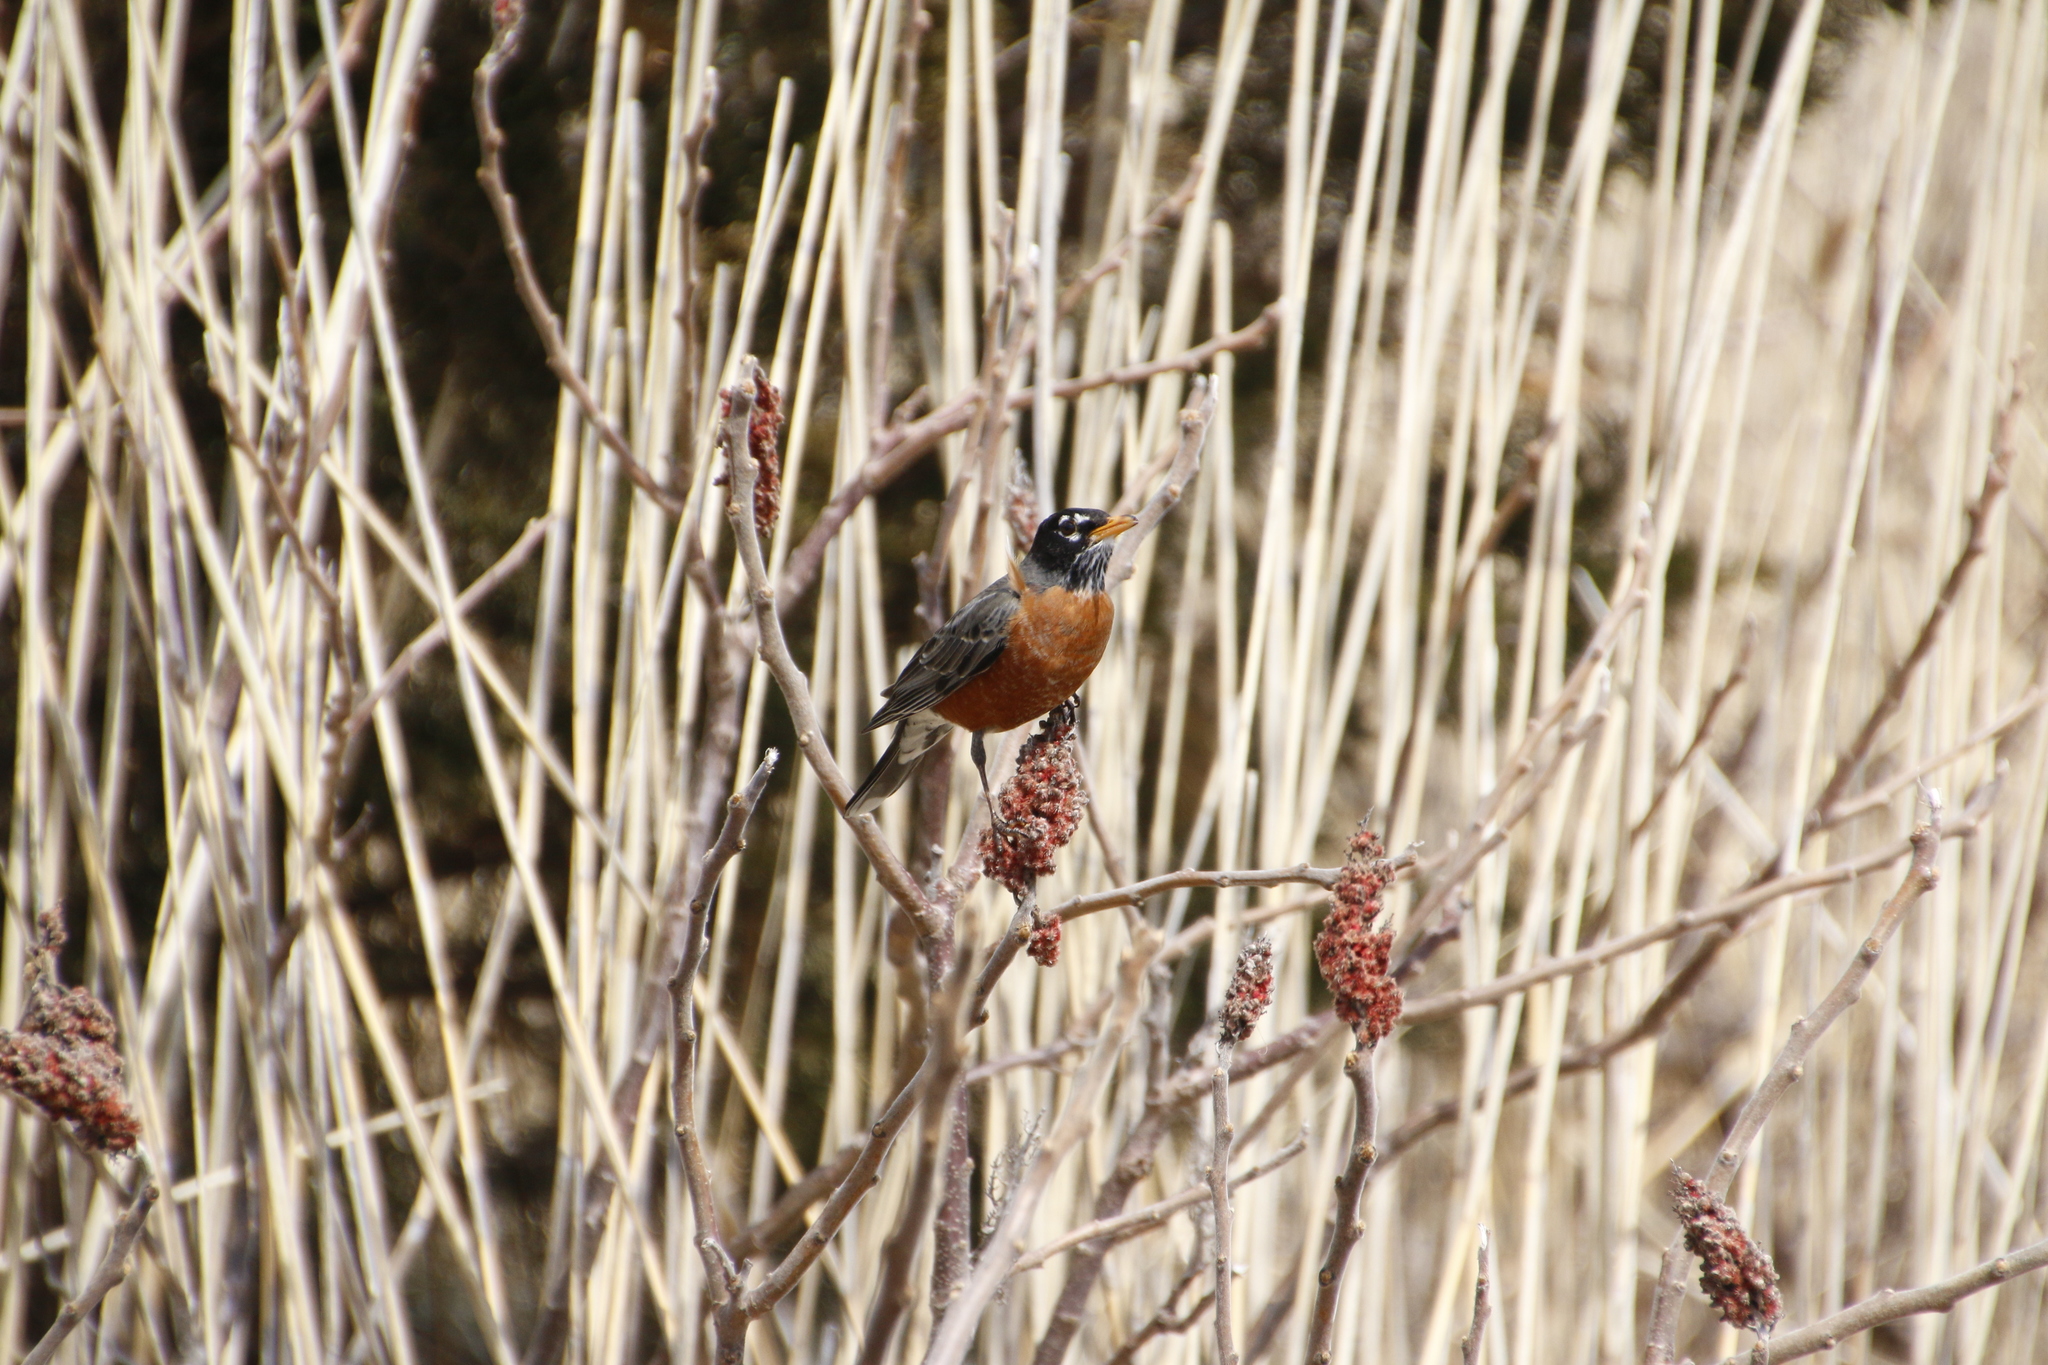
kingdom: Animalia
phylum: Chordata
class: Aves
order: Passeriformes
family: Turdidae
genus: Turdus
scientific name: Turdus migratorius
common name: American robin
